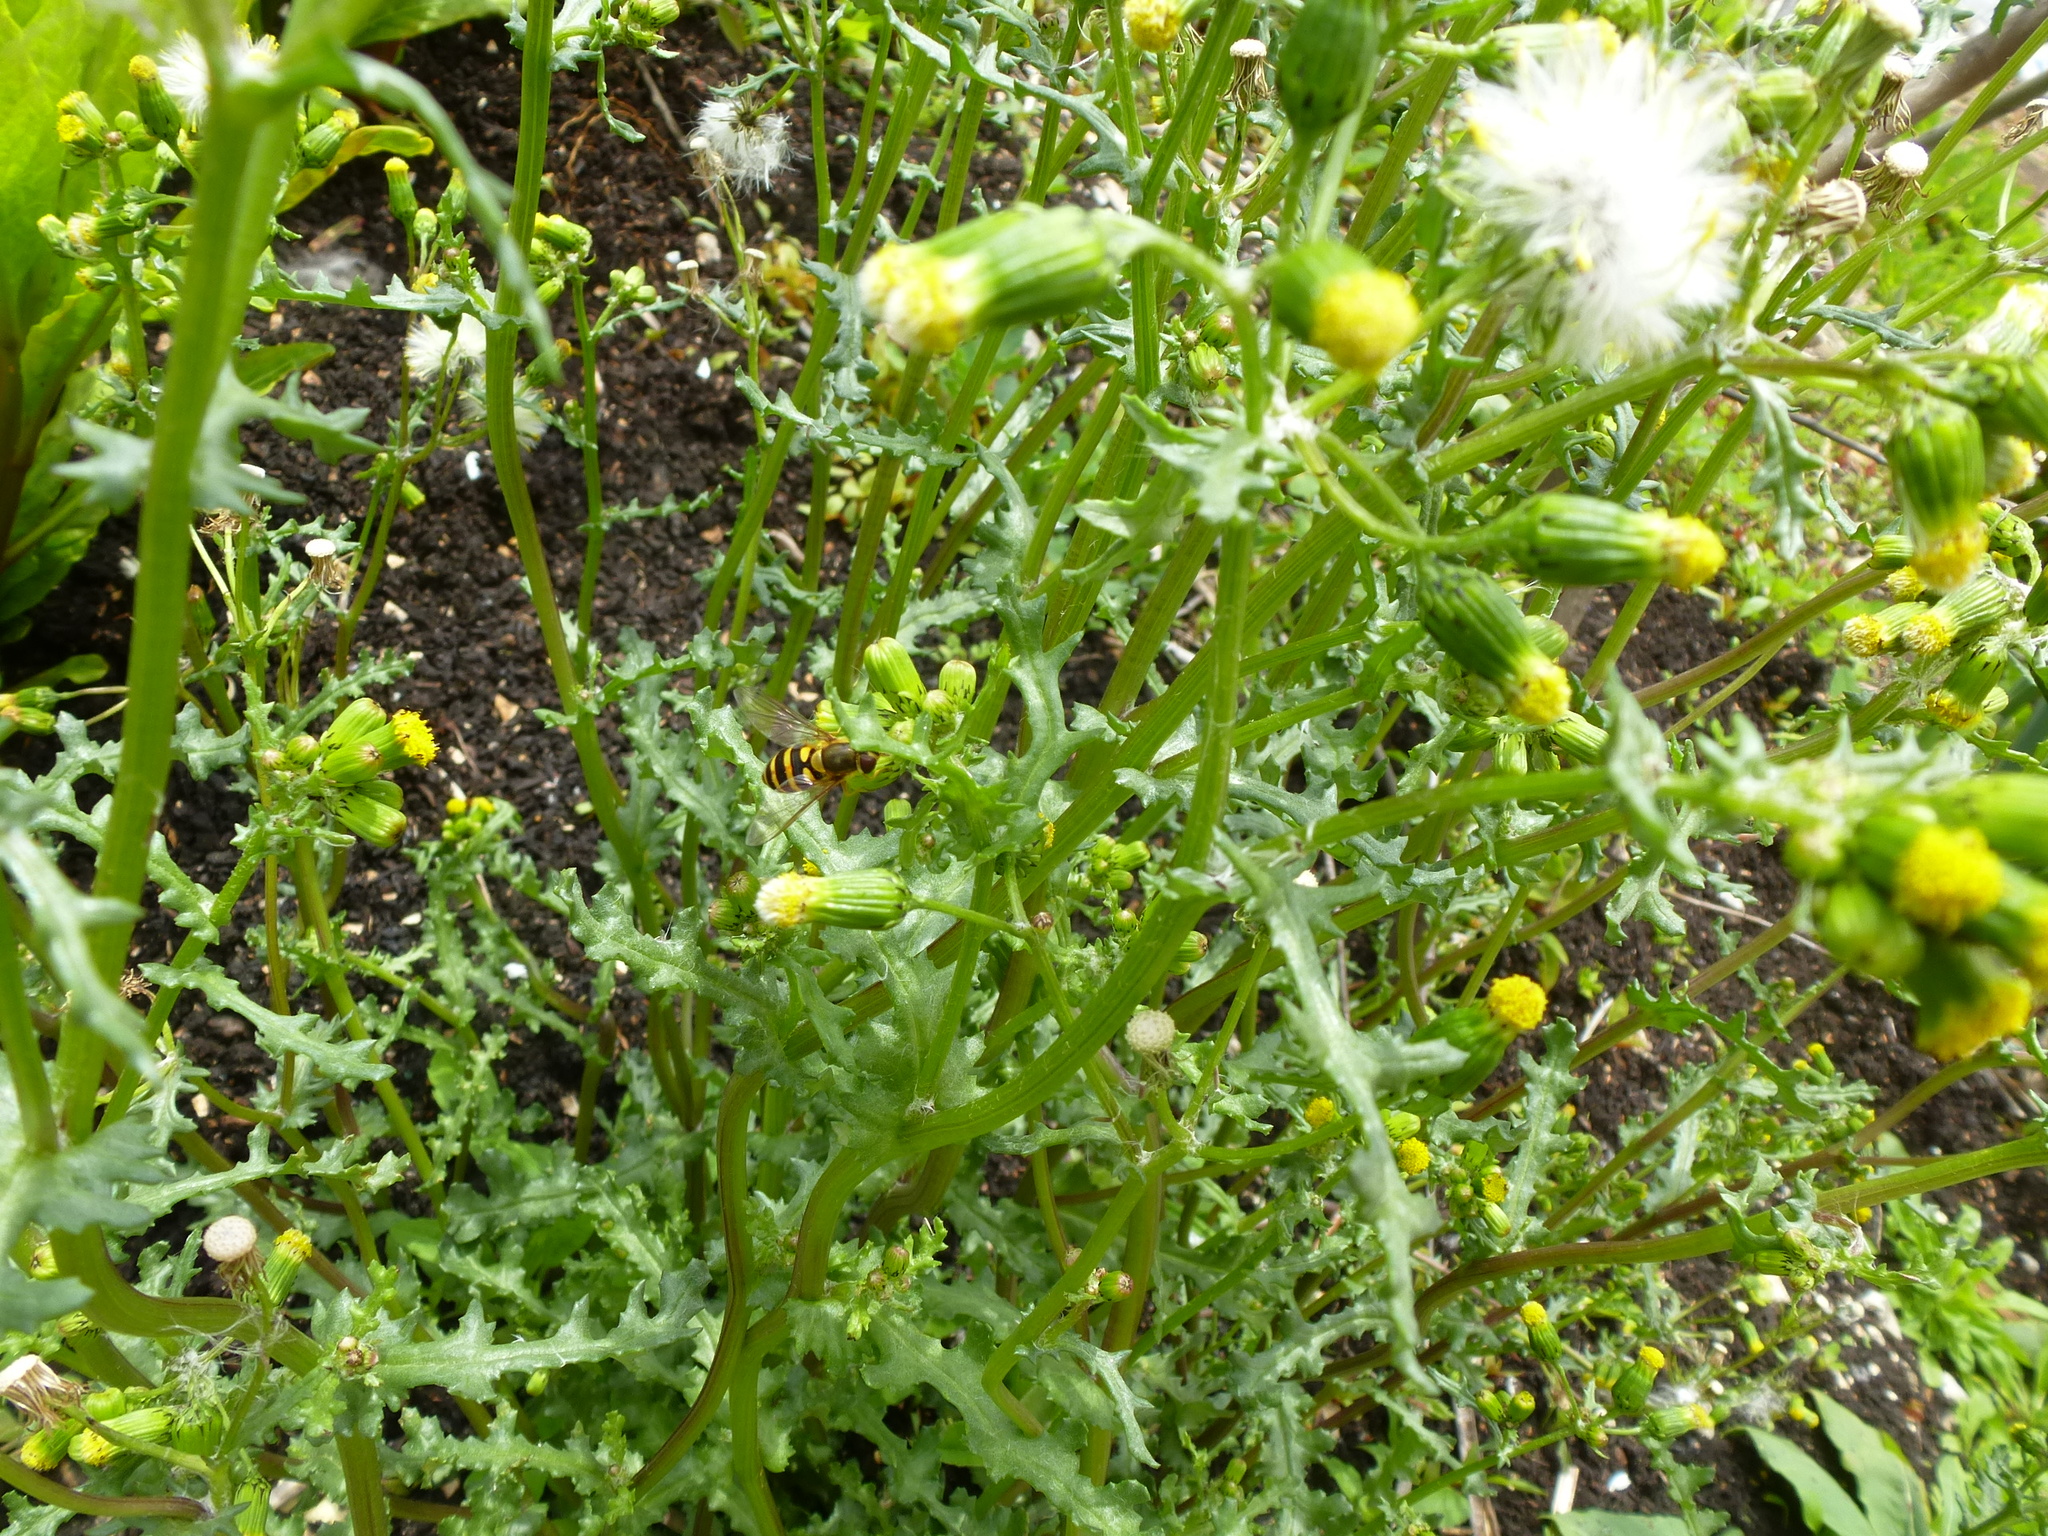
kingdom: Plantae
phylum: Tracheophyta
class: Magnoliopsida
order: Asterales
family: Asteraceae
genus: Senecio
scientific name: Senecio vulgaris
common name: Old-man-in-the-spring
